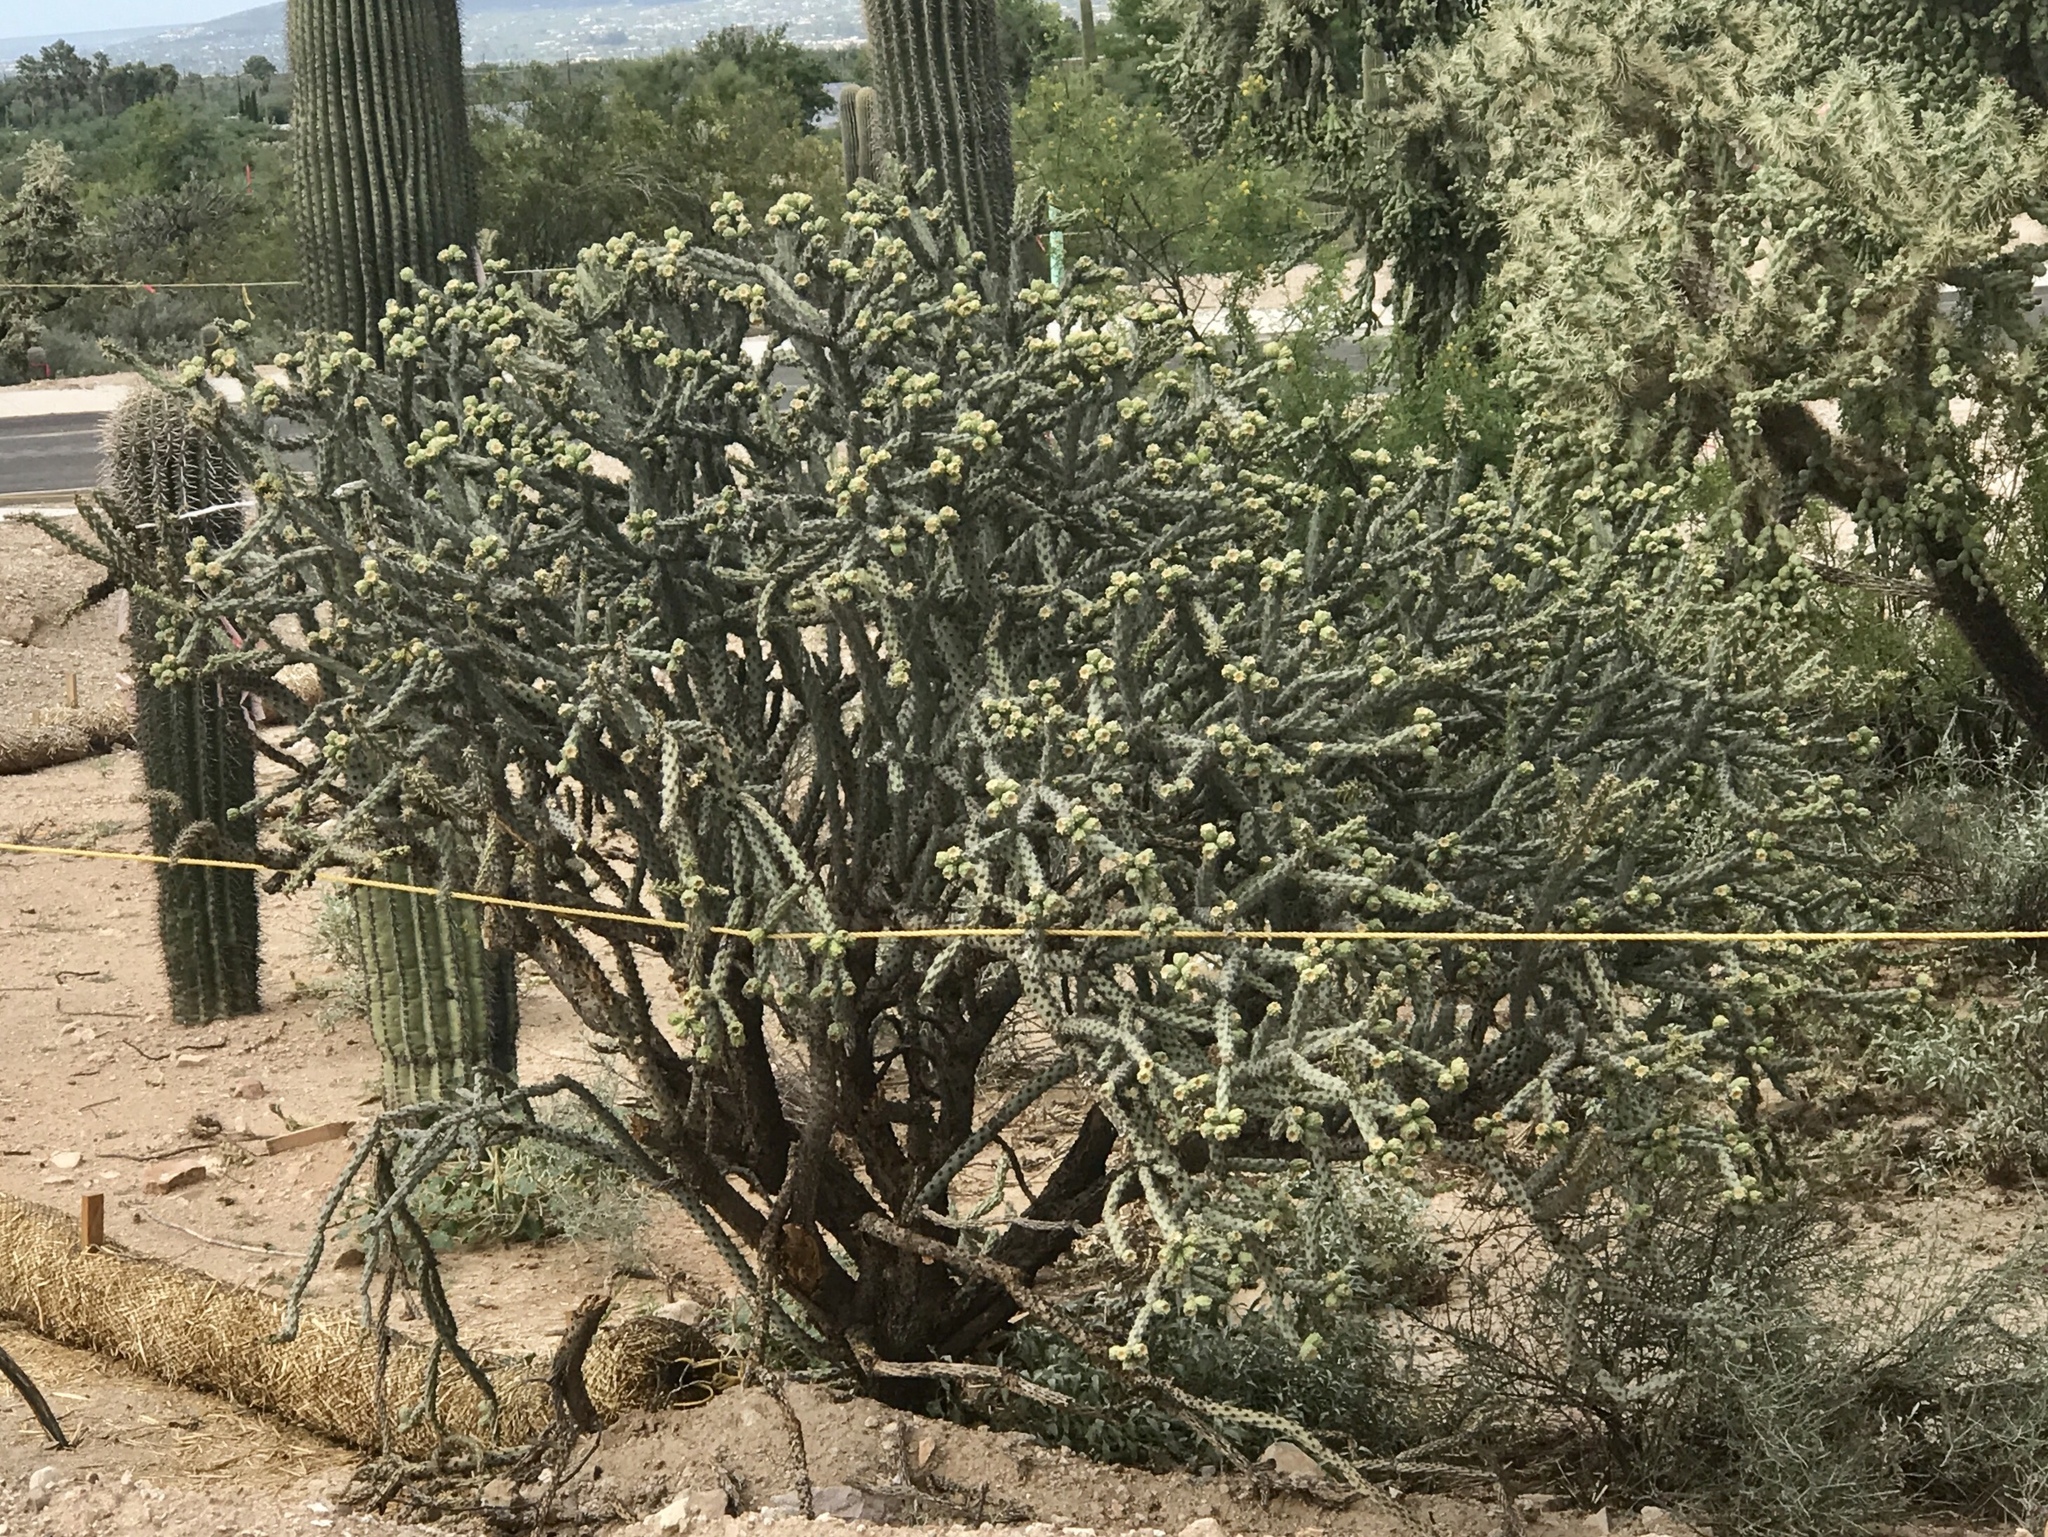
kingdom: Plantae
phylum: Tracheophyta
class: Magnoliopsida
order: Caryophyllales
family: Cactaceae
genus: Cylindropuntia
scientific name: Cylindropuntia thurberi
